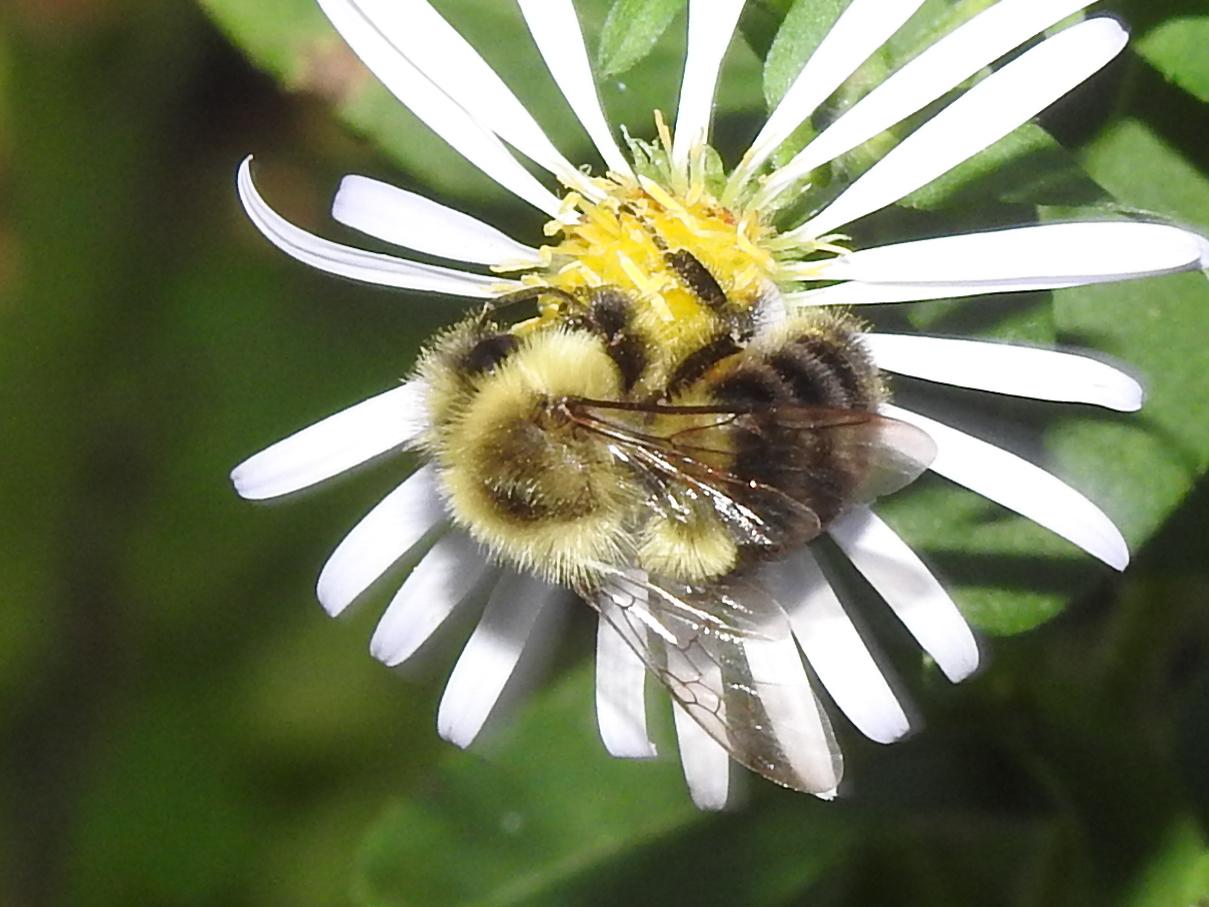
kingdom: Animalia
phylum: Arthropoda
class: Insecta
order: Hymenoptera
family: Apidae
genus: Bombus
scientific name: Bombus impatiens
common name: Common eastern bumble bee
